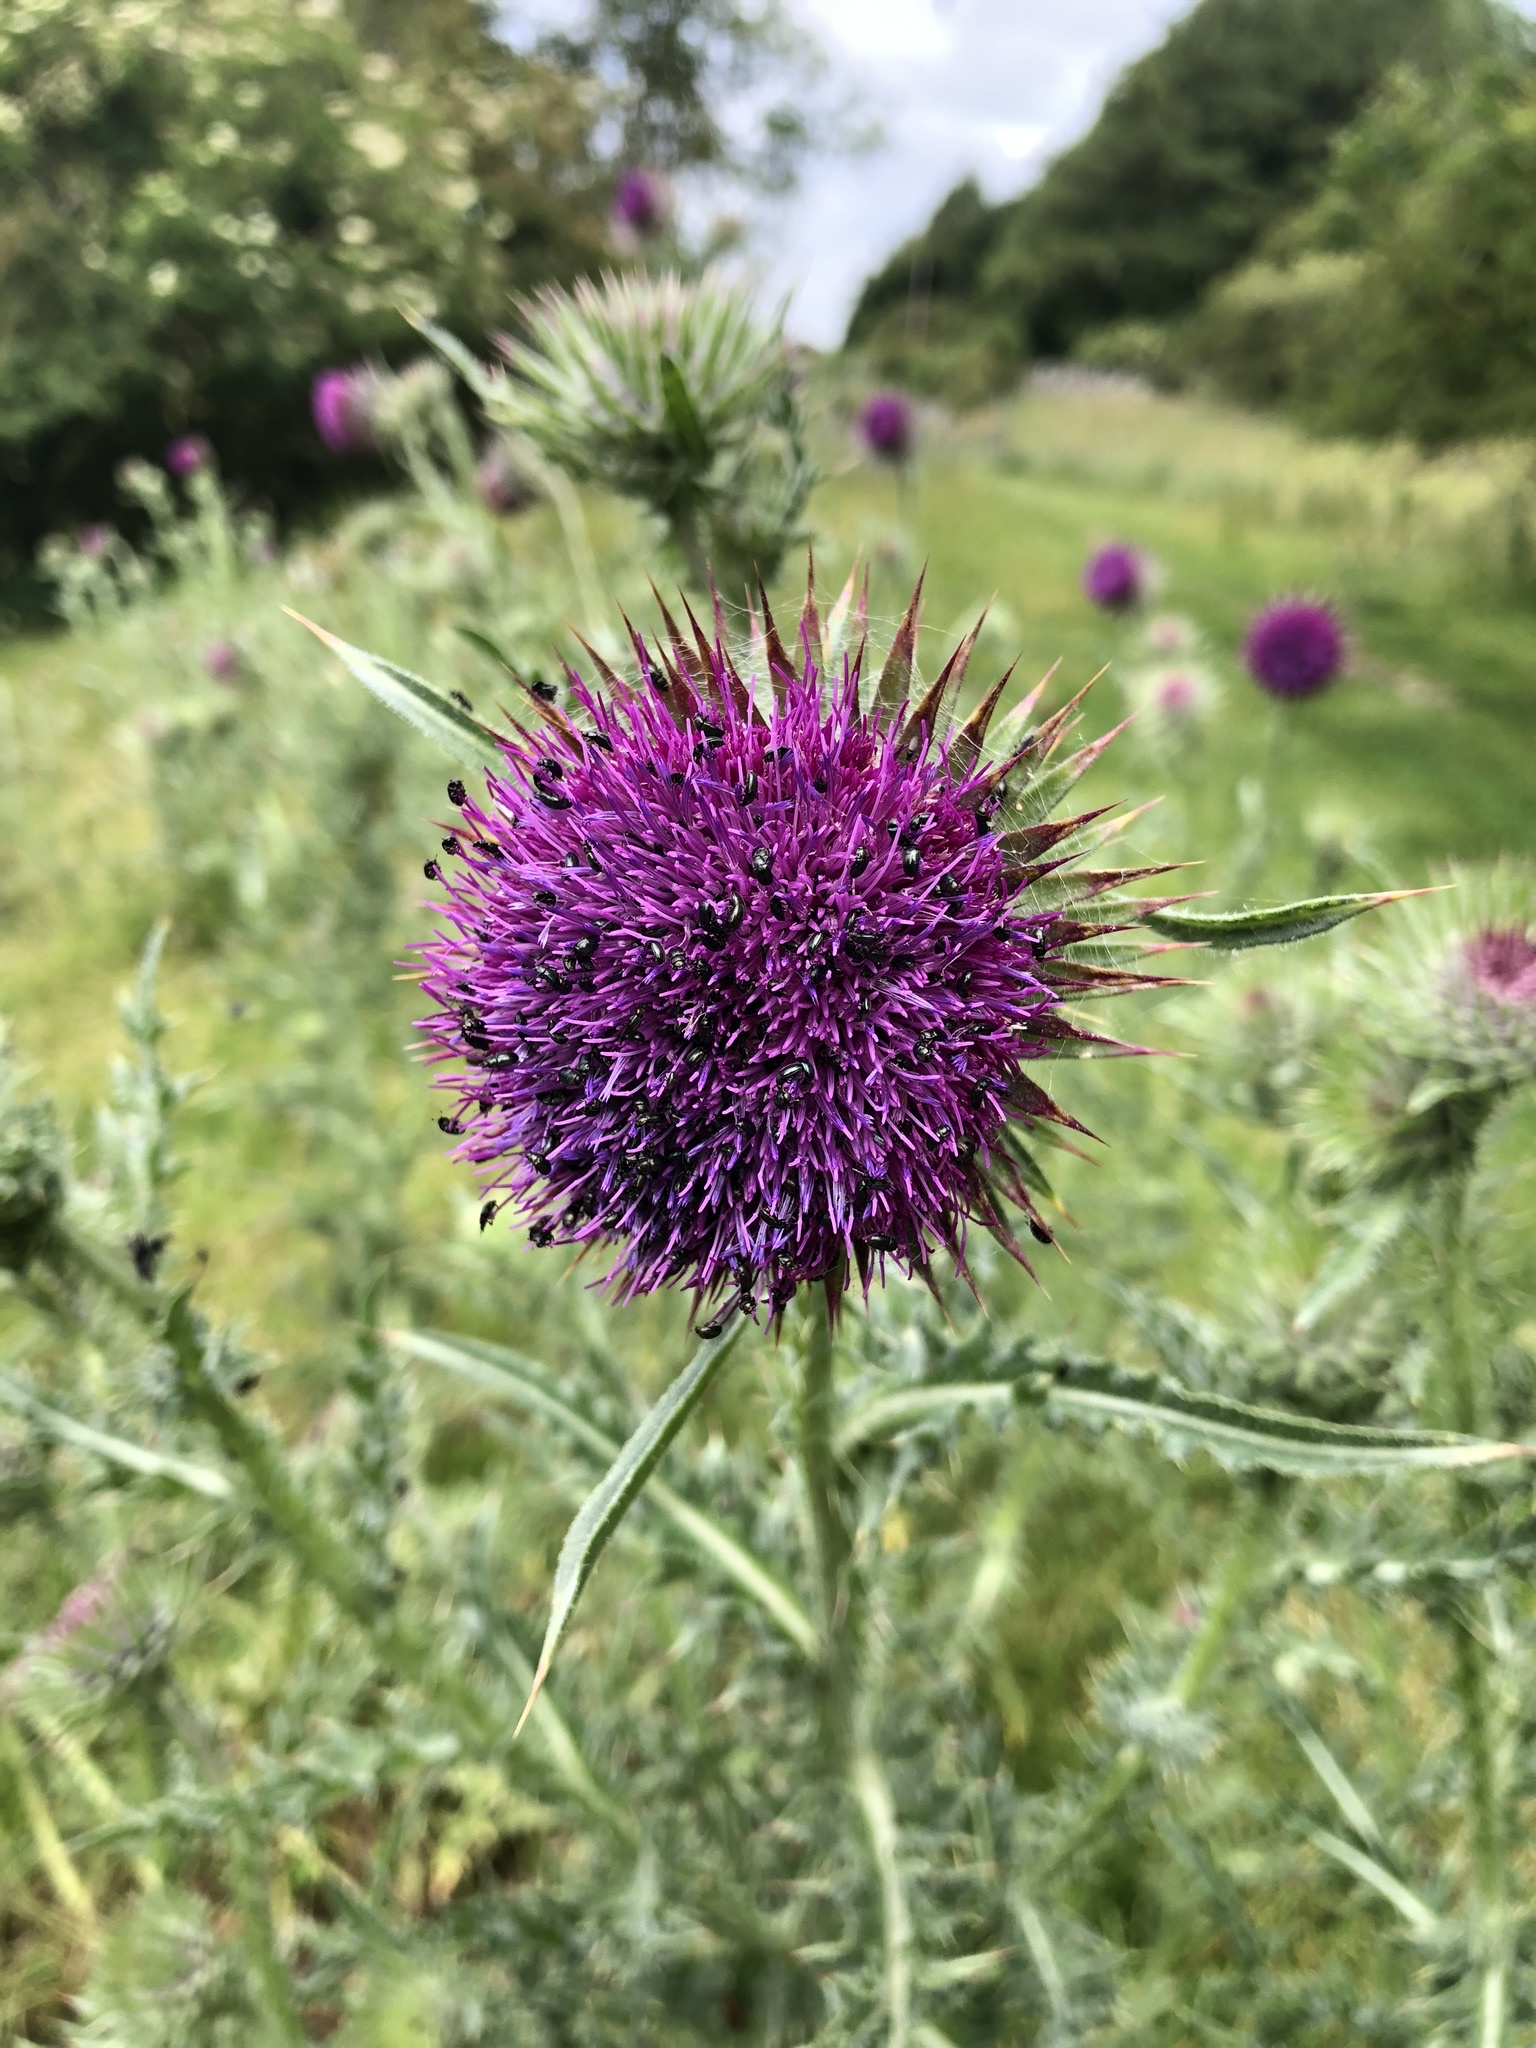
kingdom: Plantae
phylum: Tracheophyta
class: Magnoliopsida
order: Asterales
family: Asteraceae
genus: Carduus
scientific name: Carduus nutans
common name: Musk thistle
